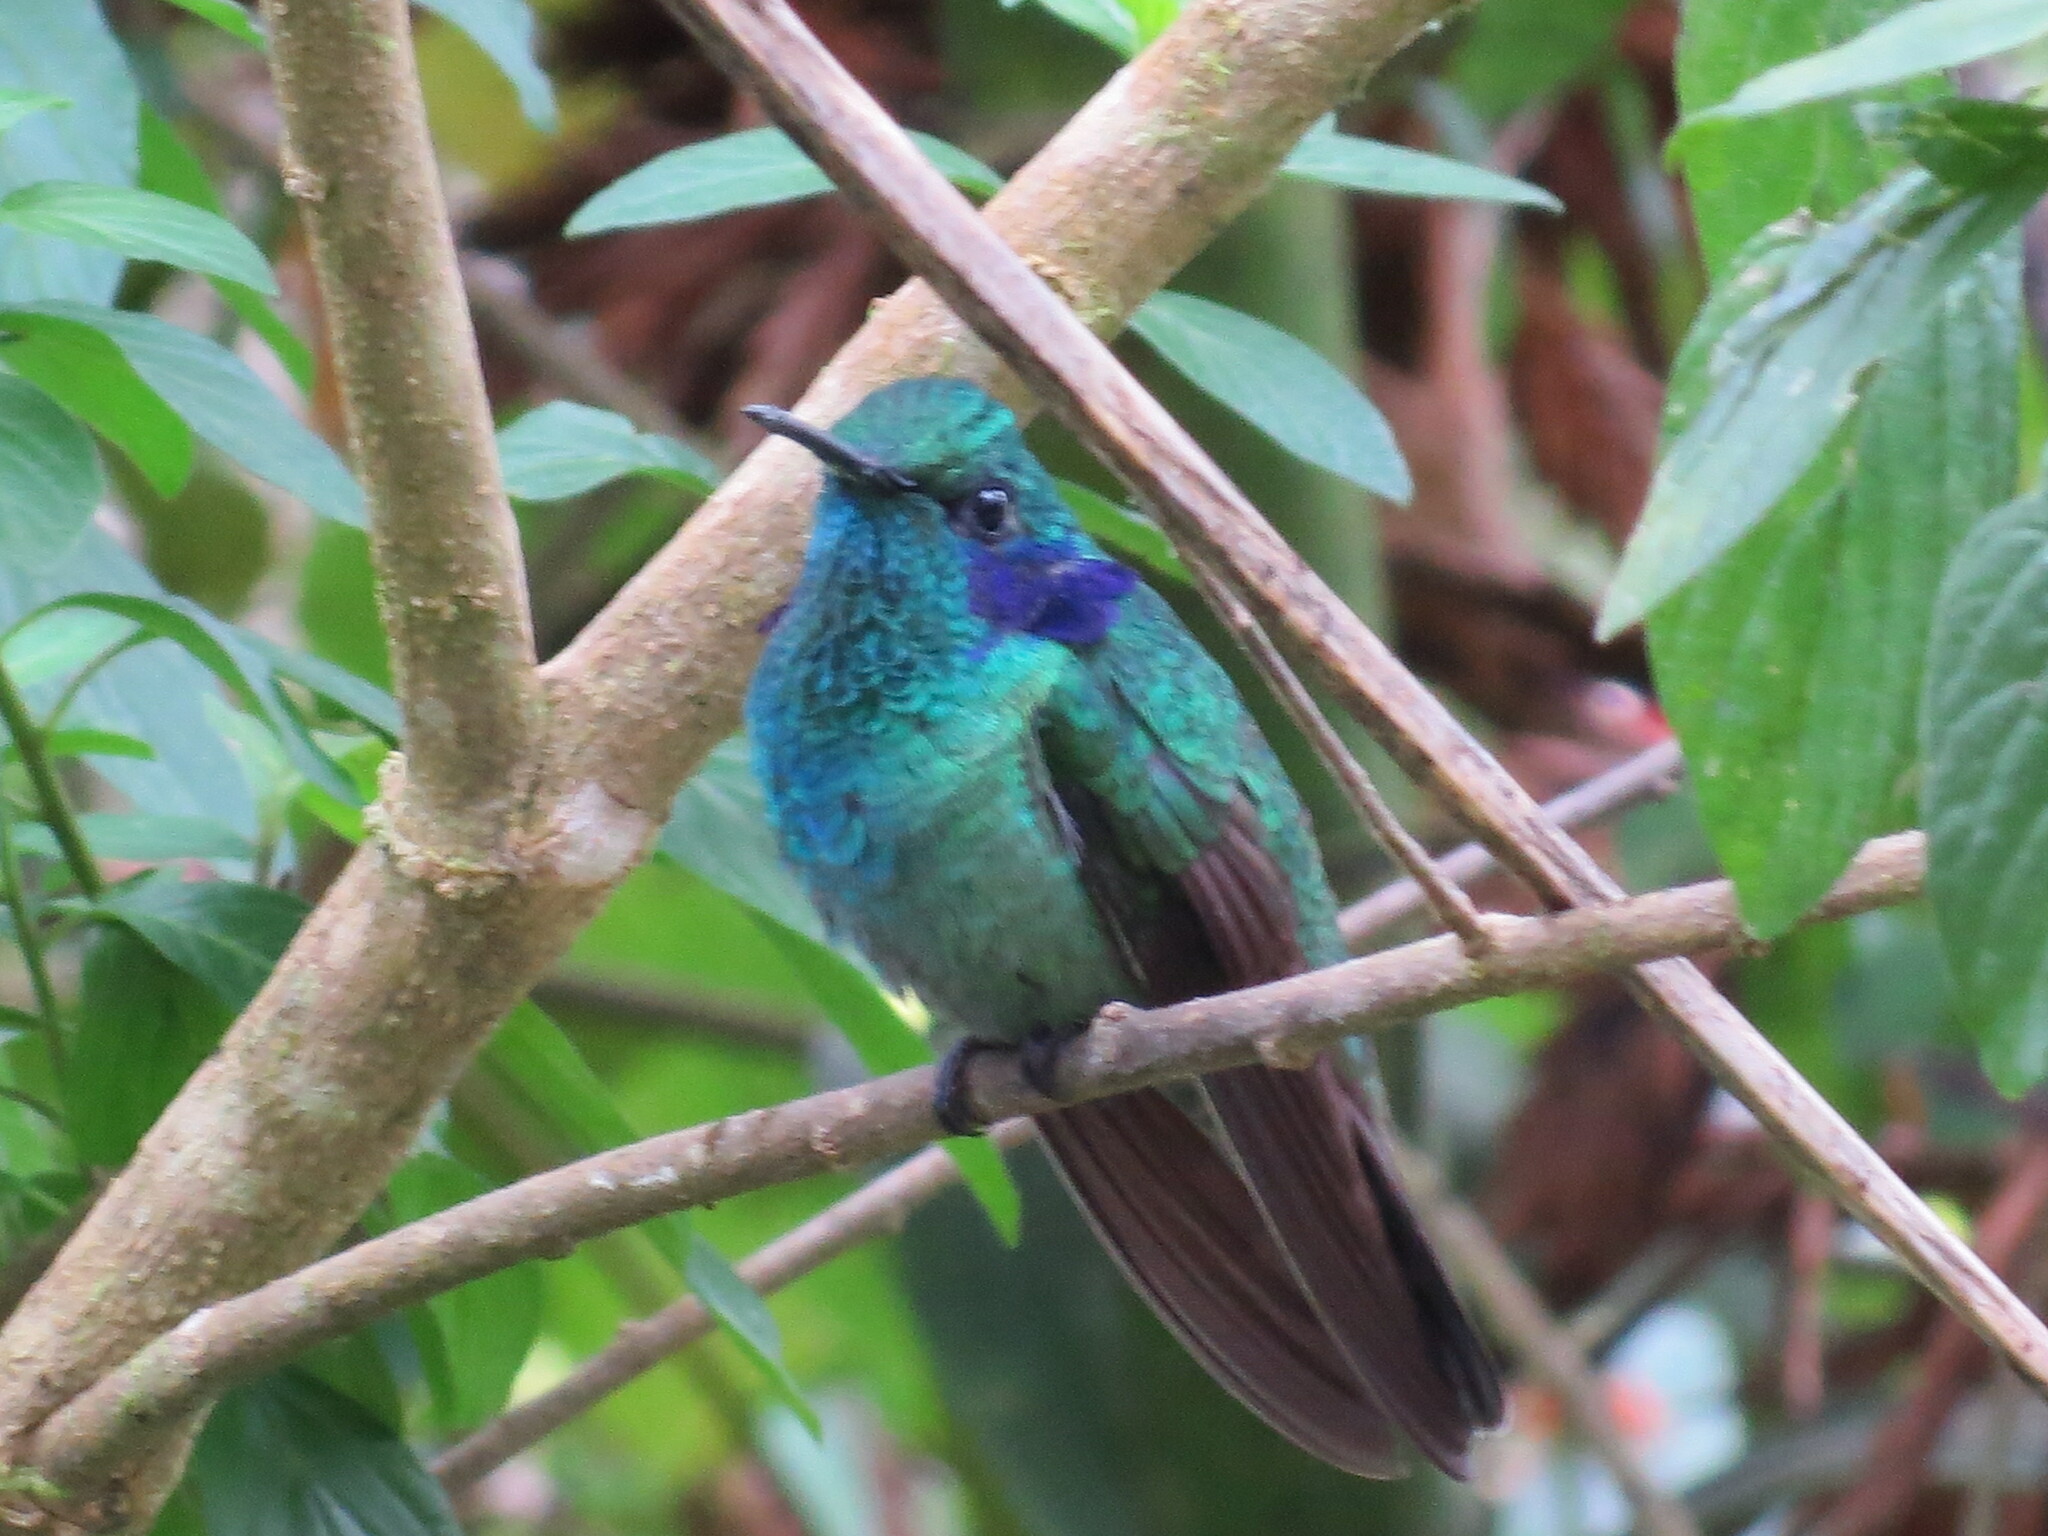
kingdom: Animalia
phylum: Chordata
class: Aves
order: Apodiformes
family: Trochilidae
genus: Colibri
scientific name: Colibri cyanotus
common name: Lesser violetear
